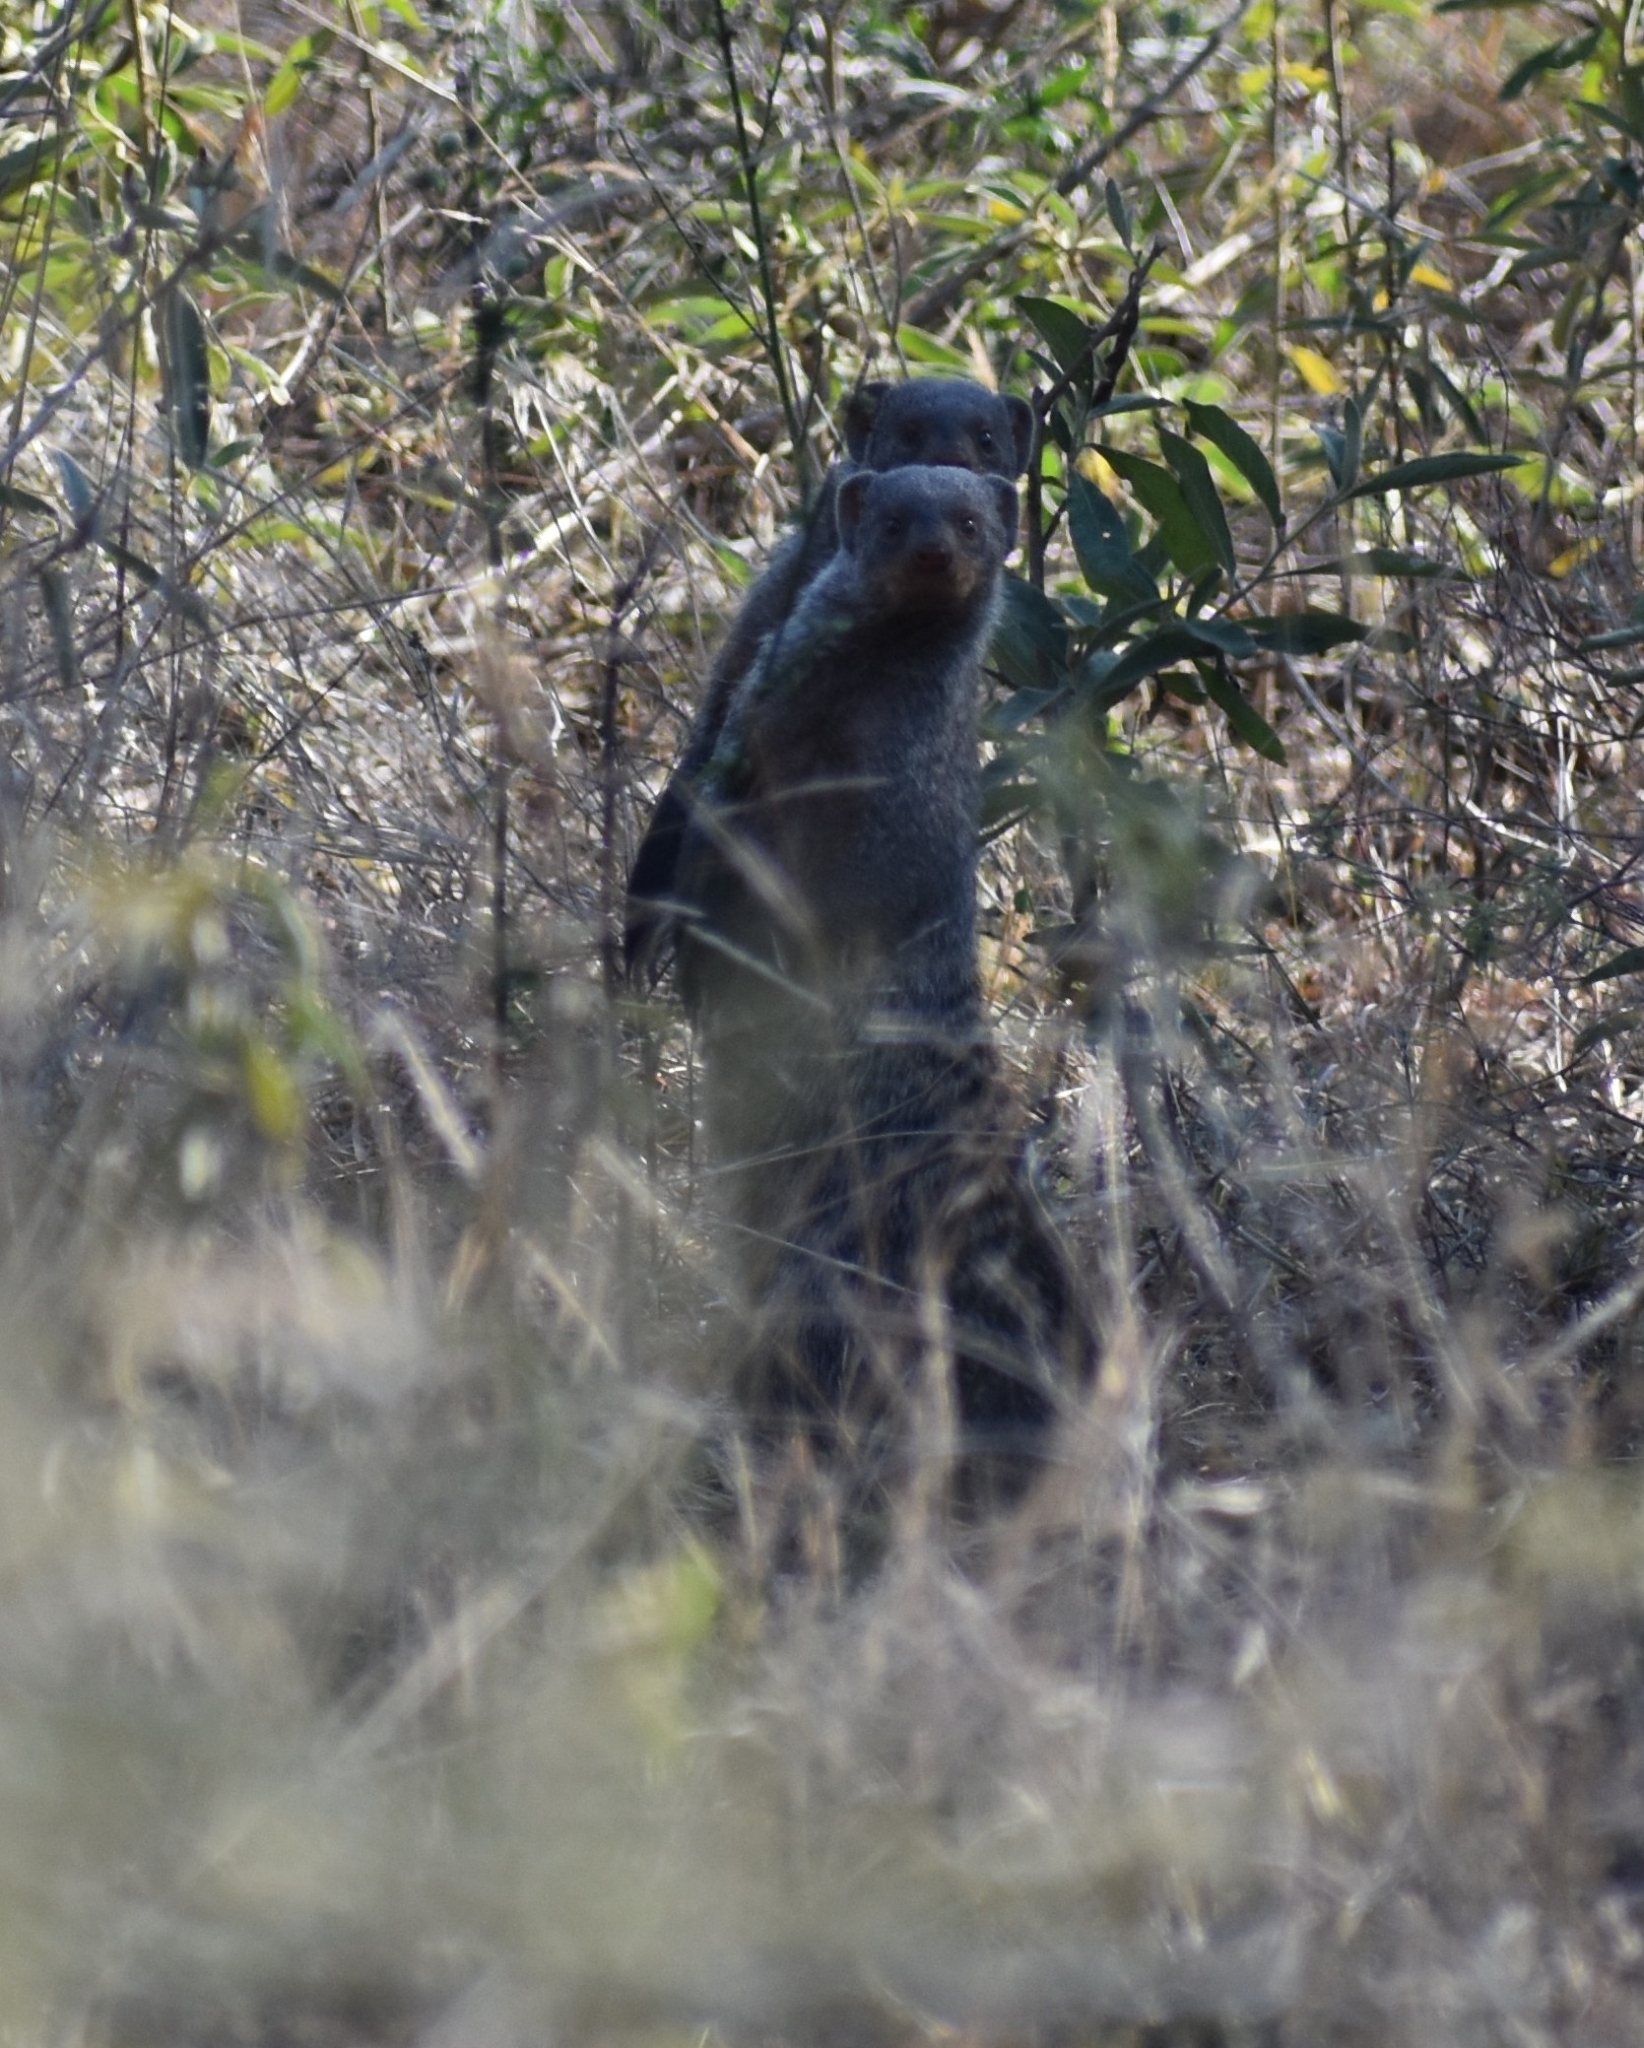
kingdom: Animalia
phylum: Chordata
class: Mammalia
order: Carnivora
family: Herpestidae
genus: Mungos
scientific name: Mungos mungo
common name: Banded mongoose
